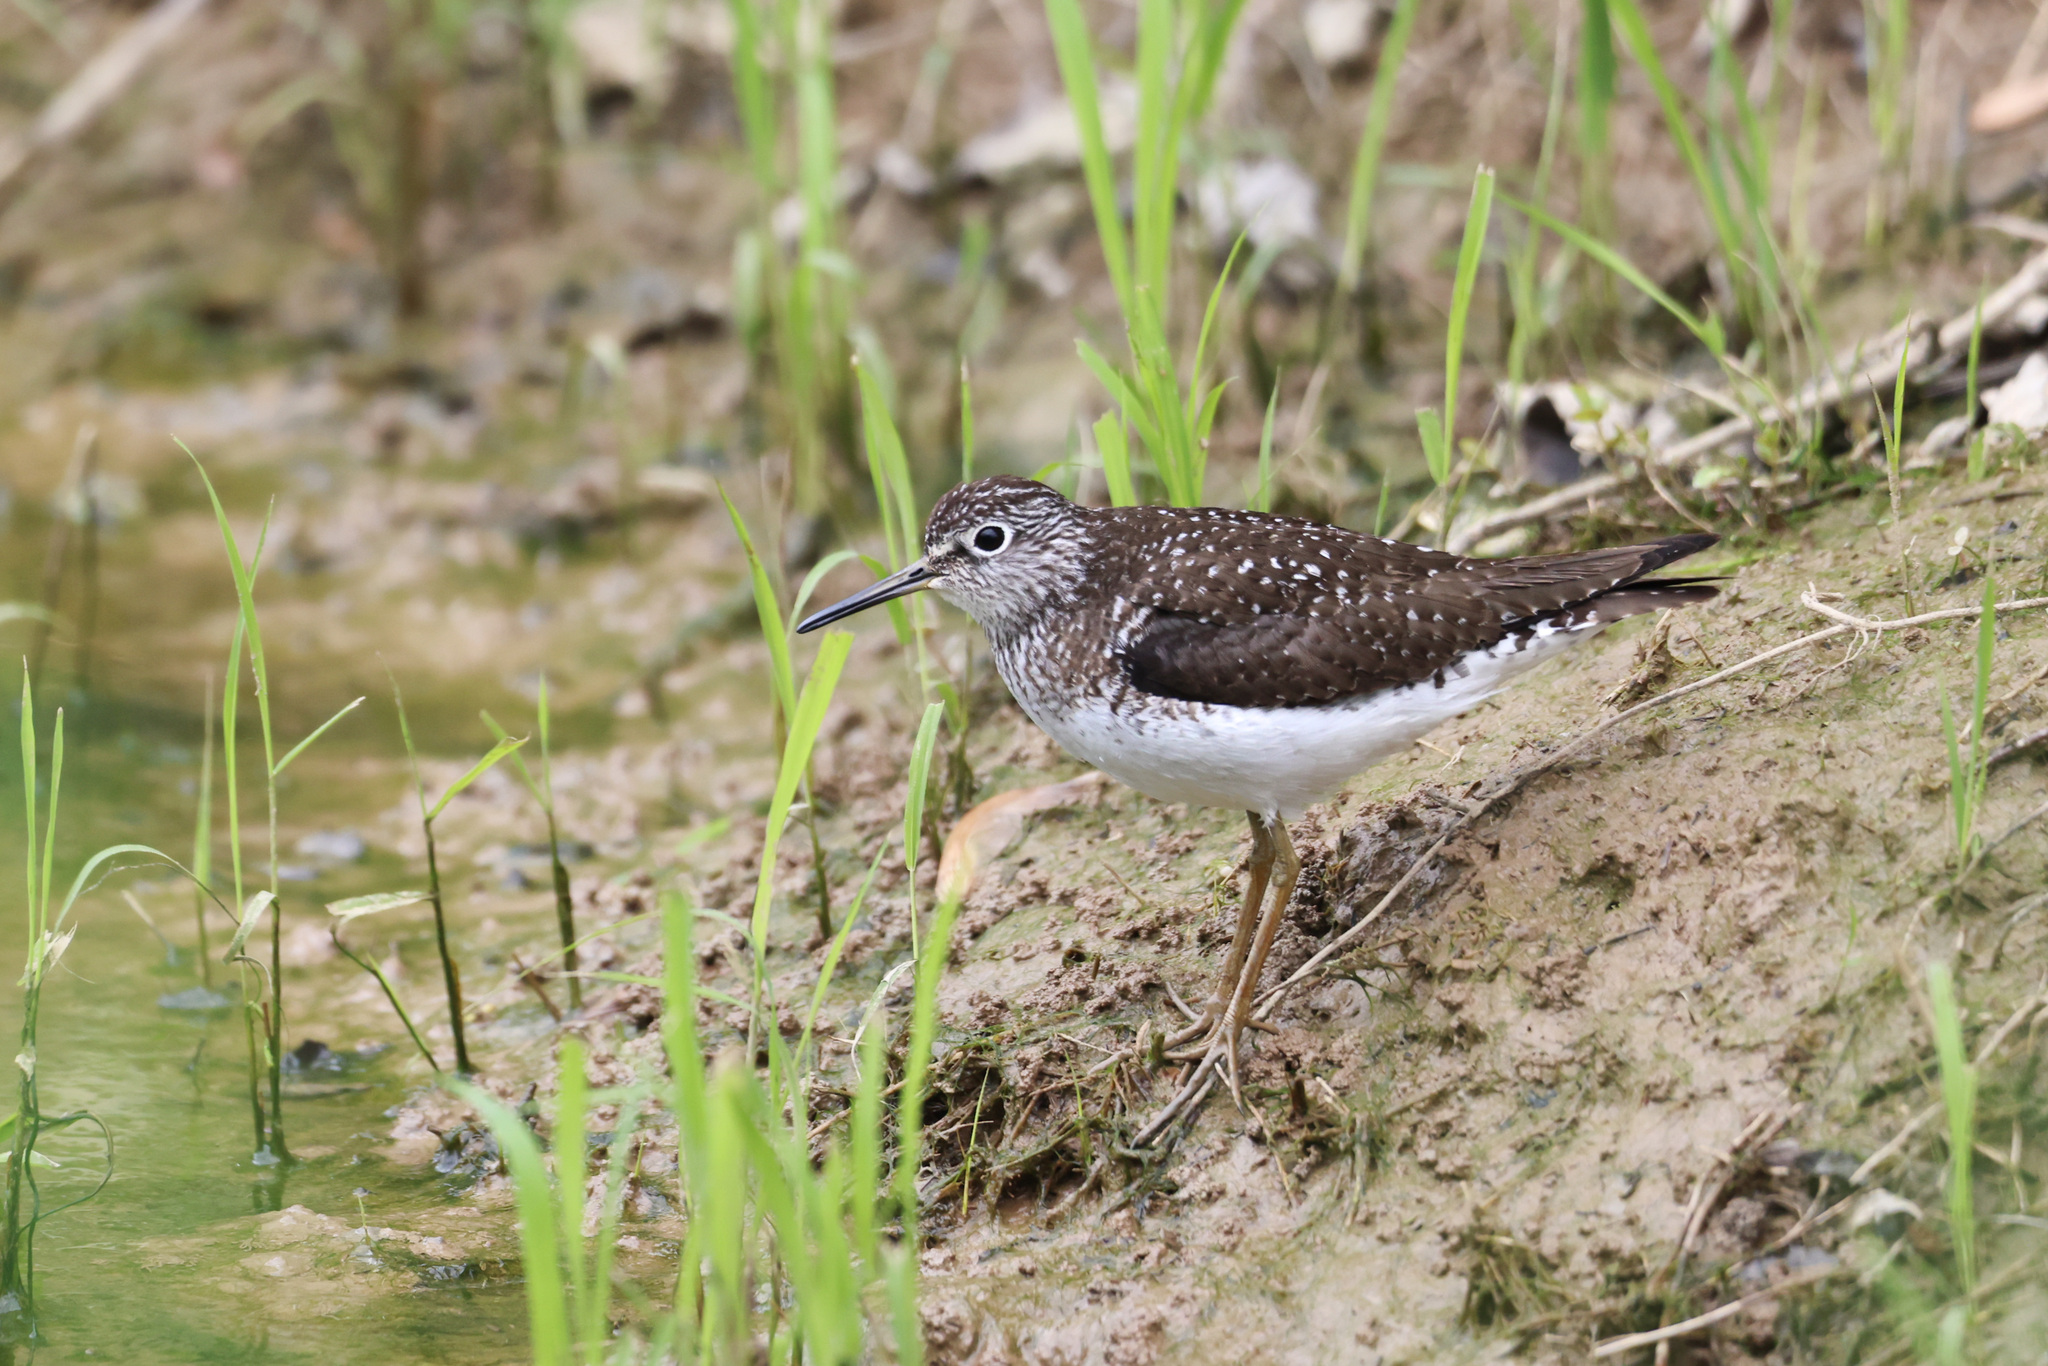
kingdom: Animalia
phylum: Chordata
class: Aves
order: Charadriiformes
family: Scolopacidae
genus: Tringa
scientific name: Tringa solitaria
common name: Solitary sandpiper
